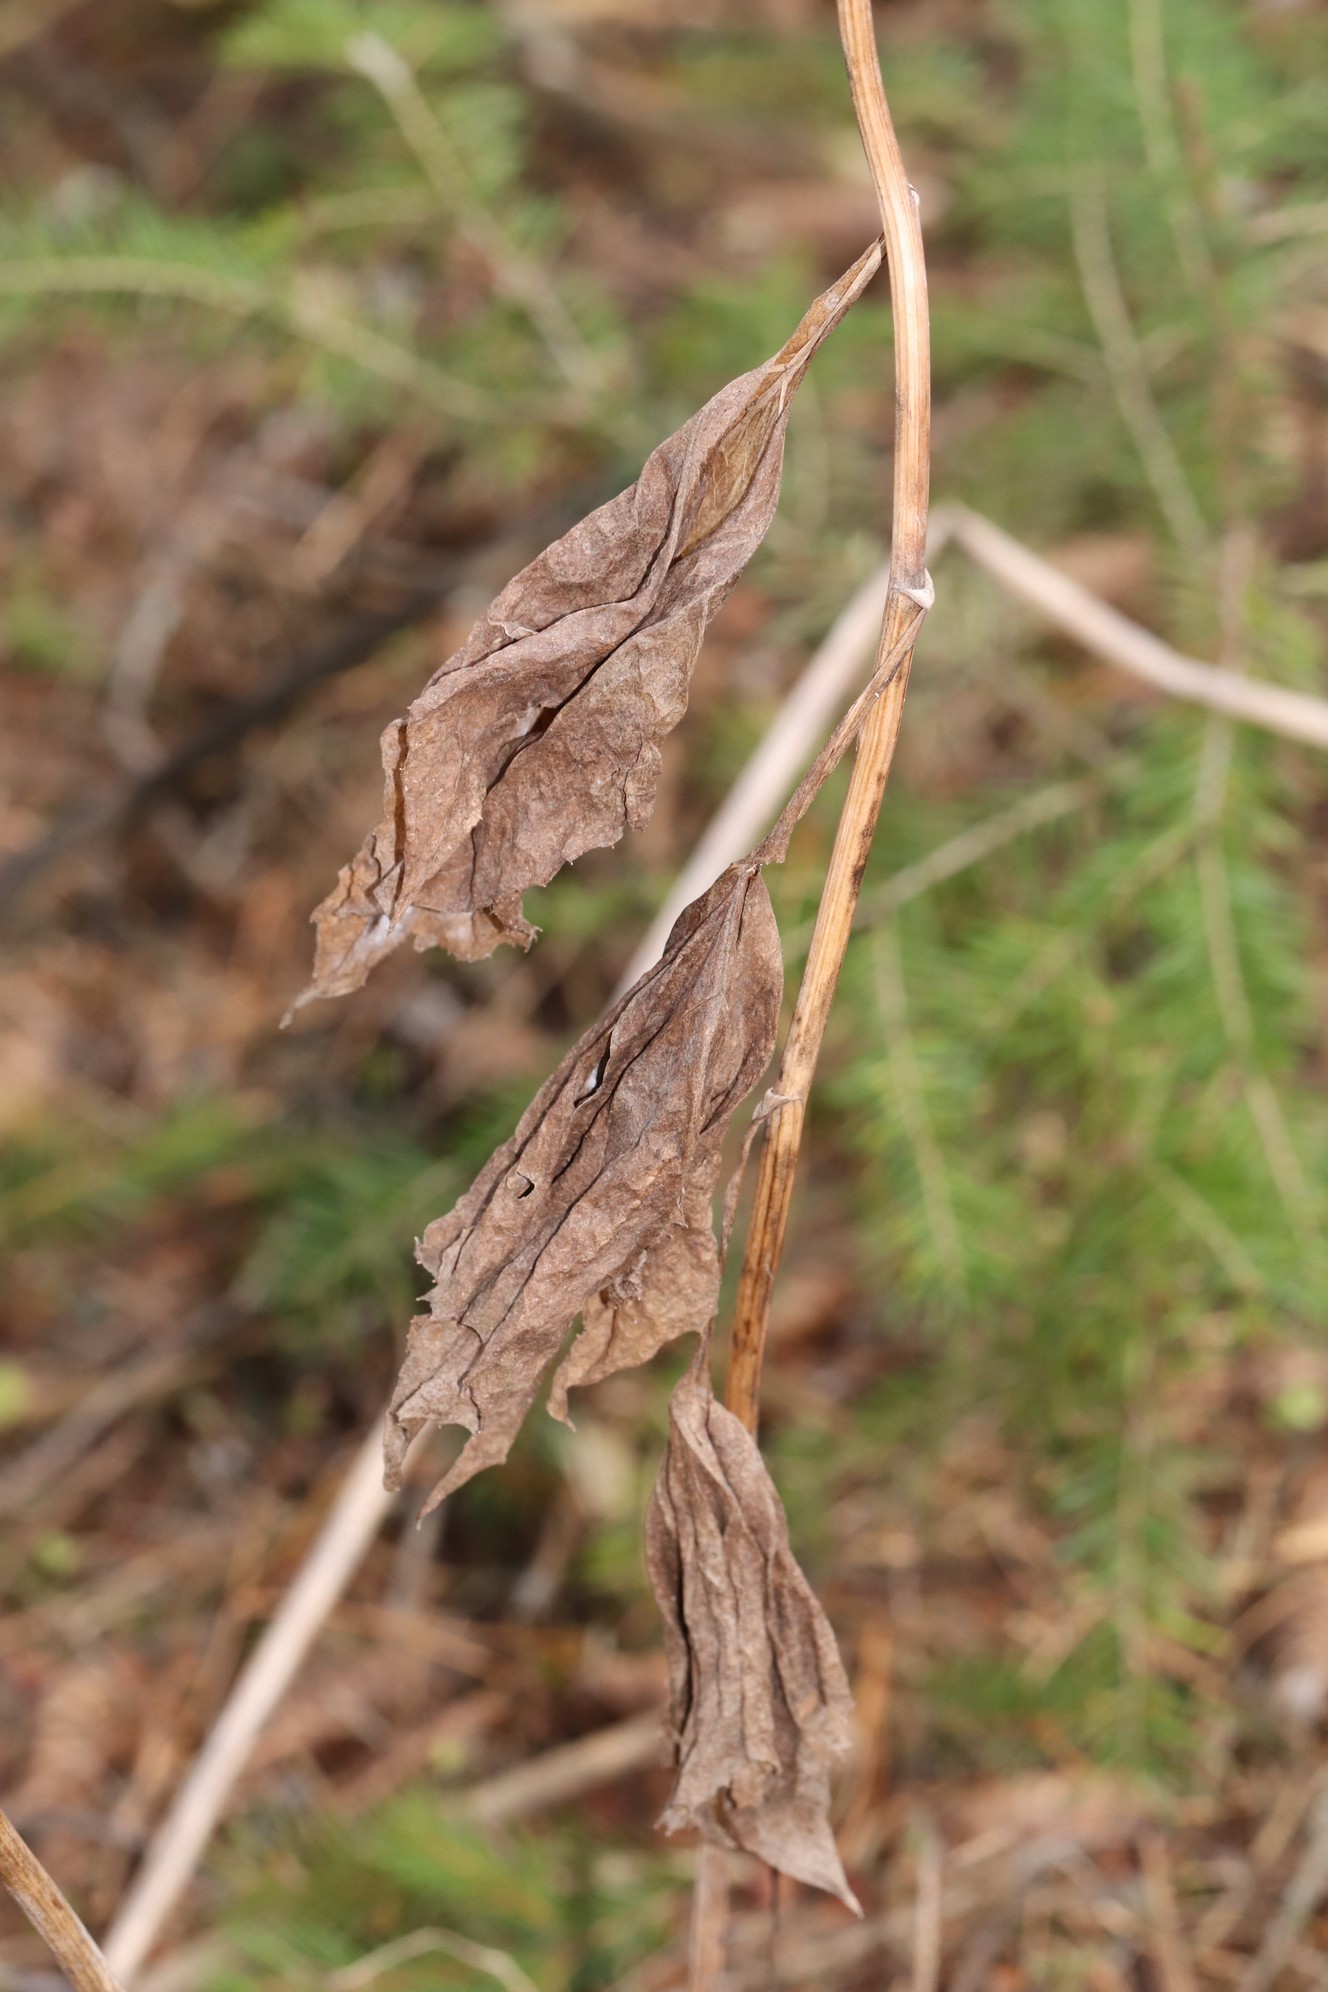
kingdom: Plantae
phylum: Tracheophyta
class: Magnoliopsida
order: Asterales
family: Asteraceae
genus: Parasenecio
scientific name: Parasenecio hastatus
